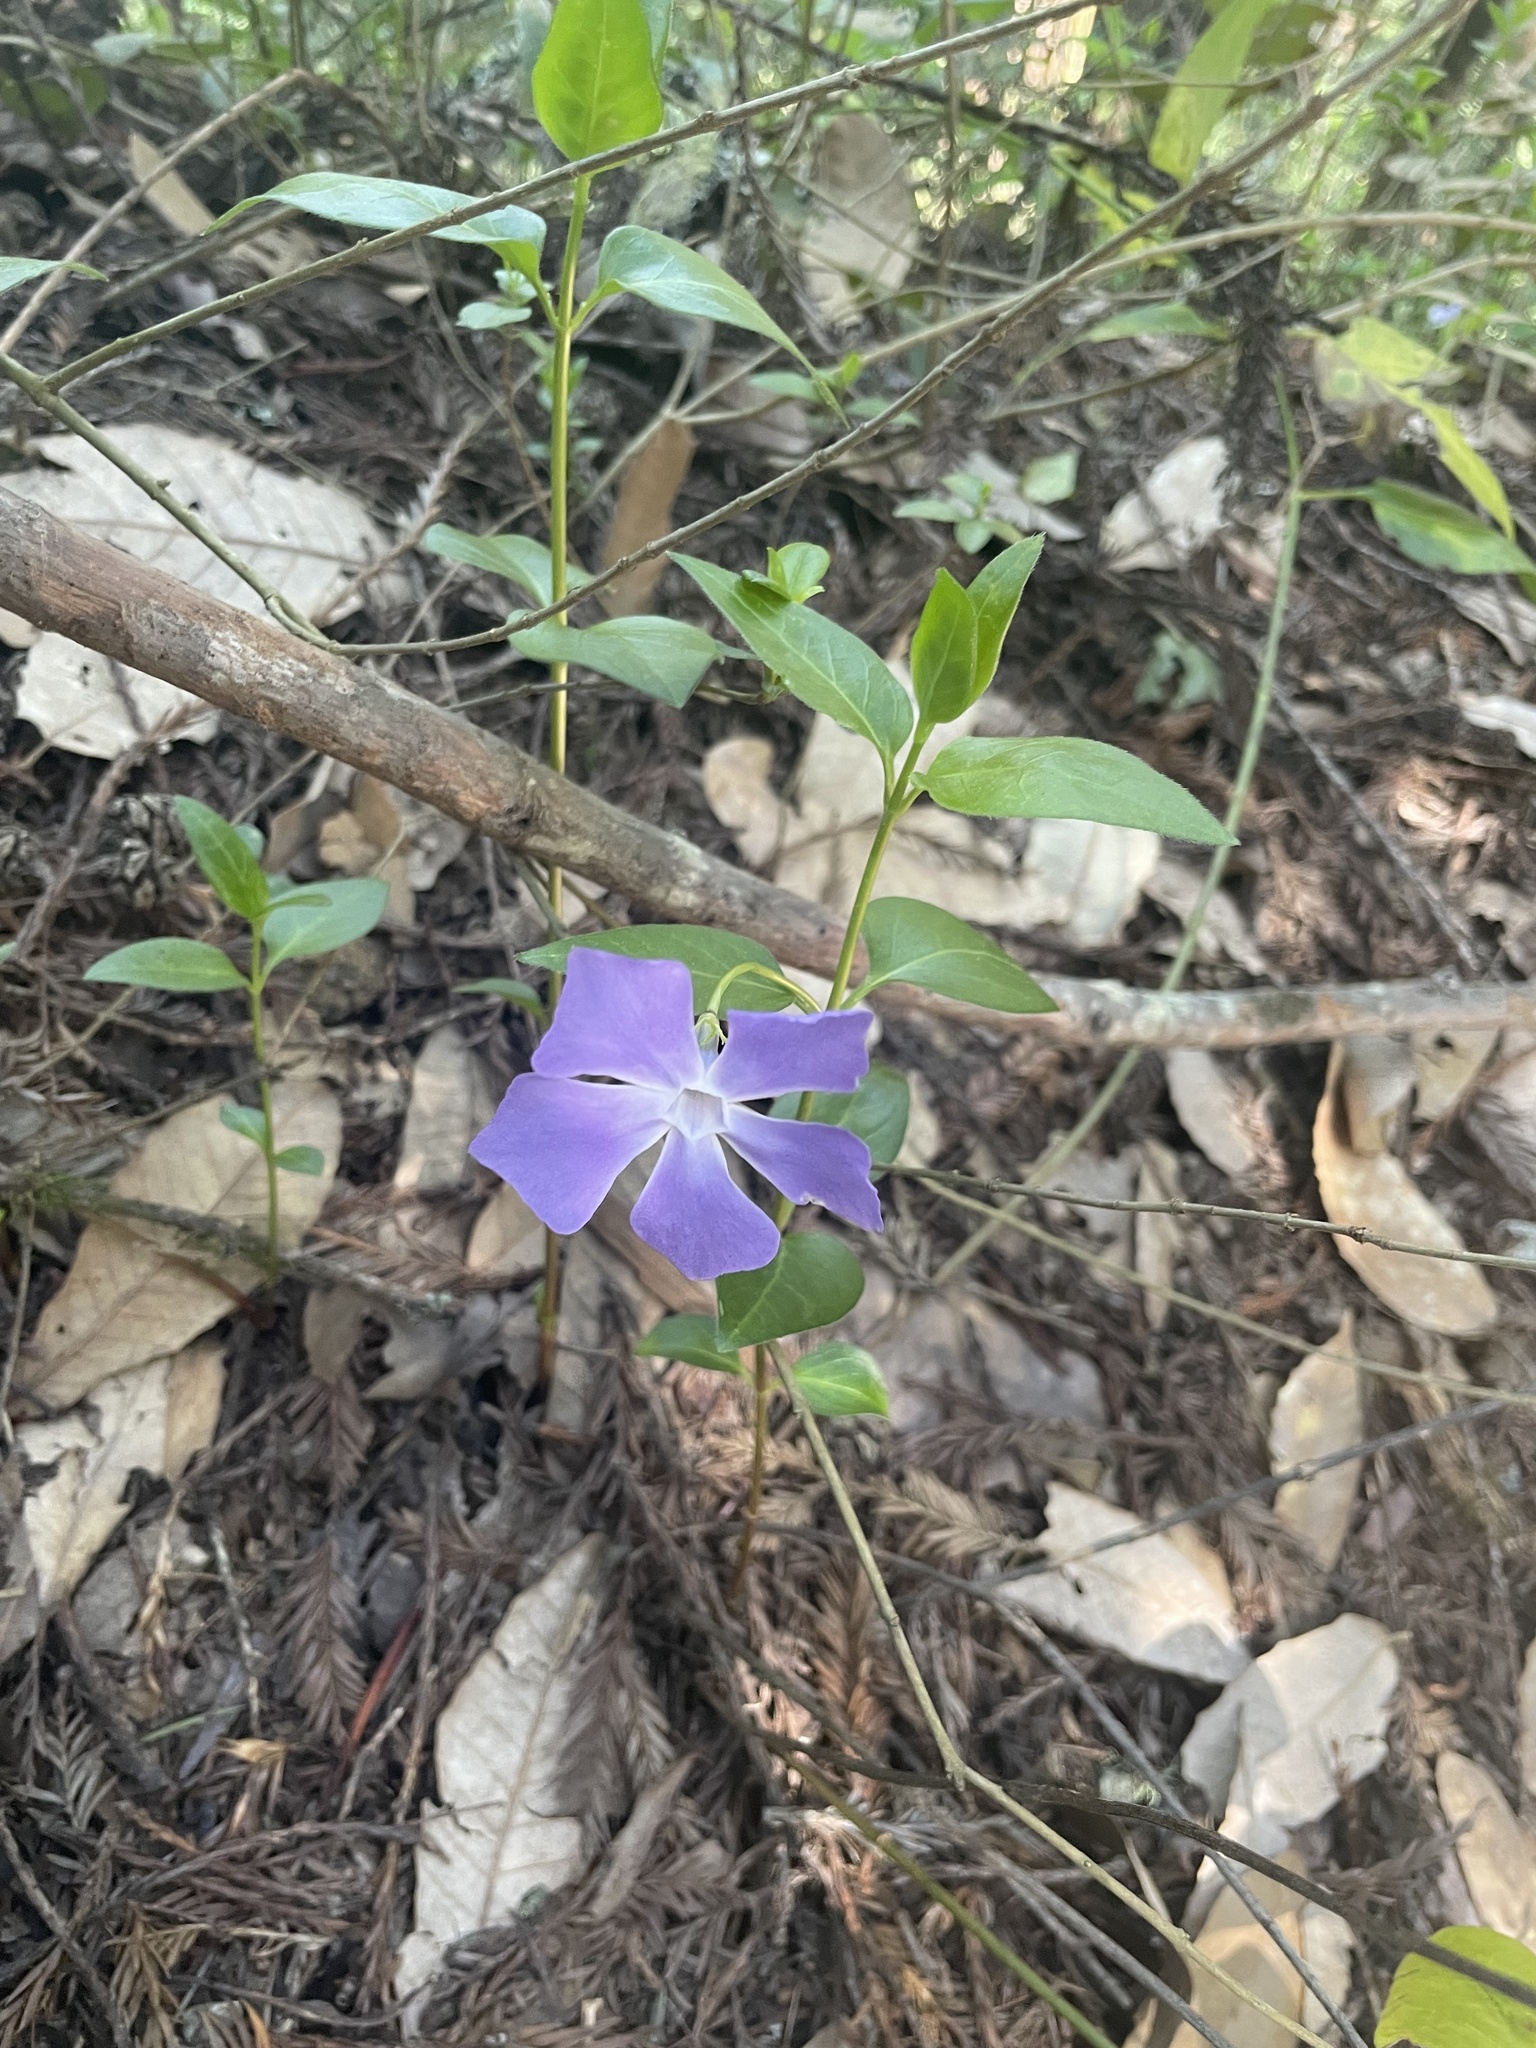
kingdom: Plantae
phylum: Tracheophyta
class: Magnoliopsida
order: Gentianales
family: Apocynaceae
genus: Vinca
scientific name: Vinca major
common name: Greater periwinkle
